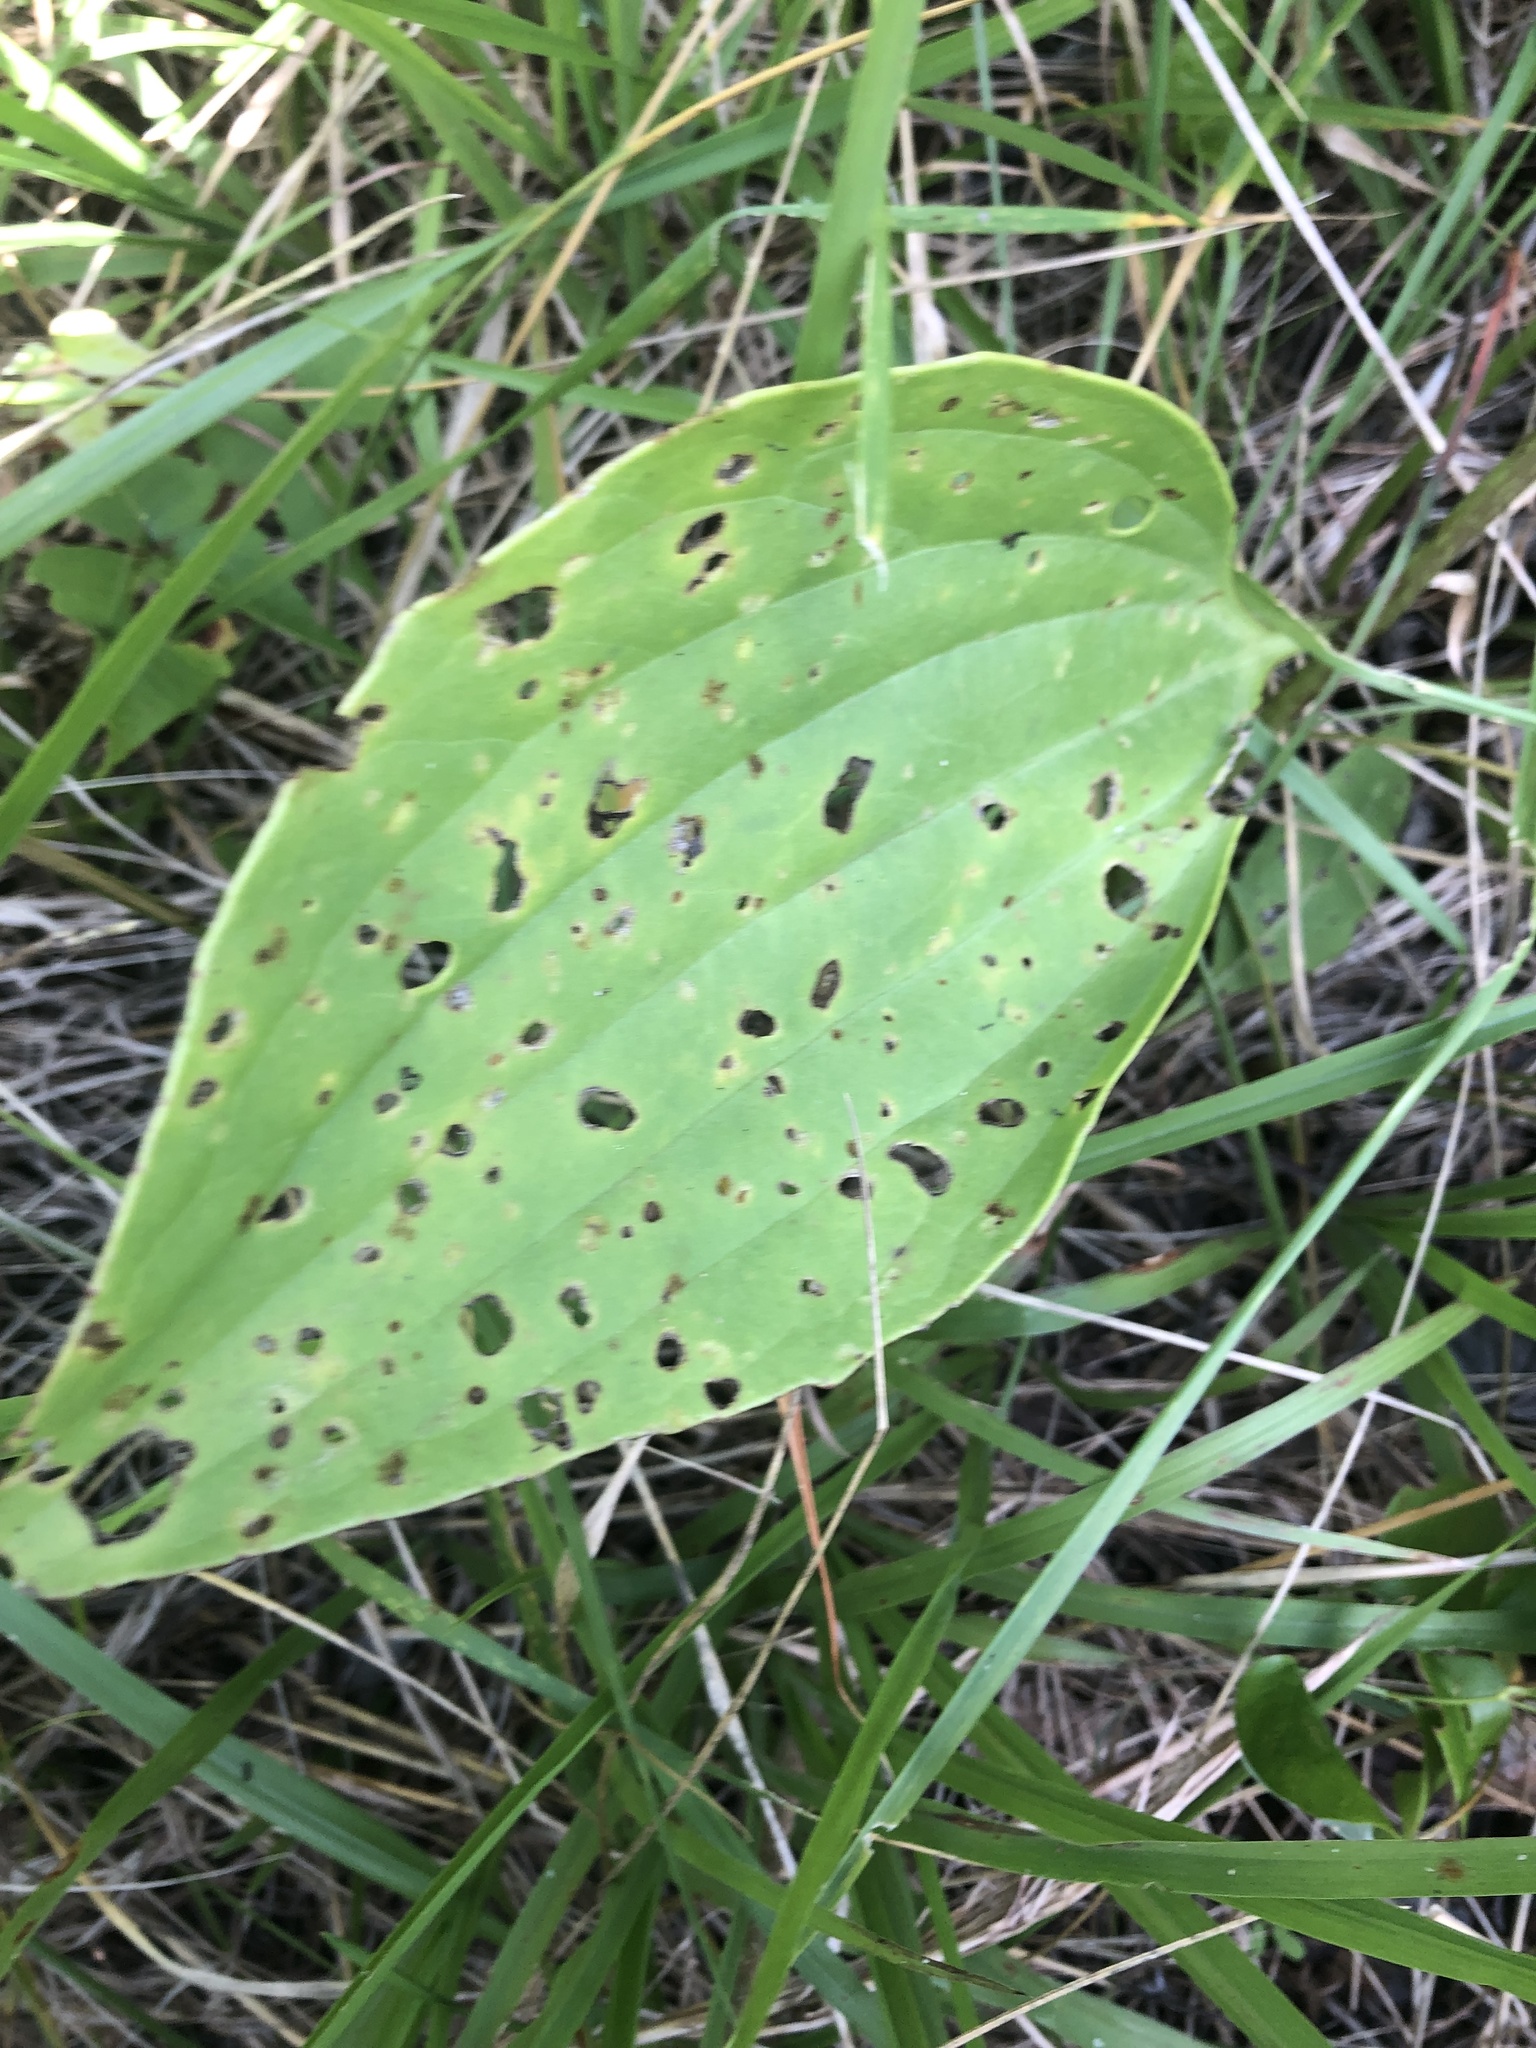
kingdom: Plantae
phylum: Tracheophyta
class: Magnoliopsida
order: Asterales
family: Asteraceae
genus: Arnoglossum
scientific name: Arnoglossum plantagineum
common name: Groove-stemmed indian-plantain
